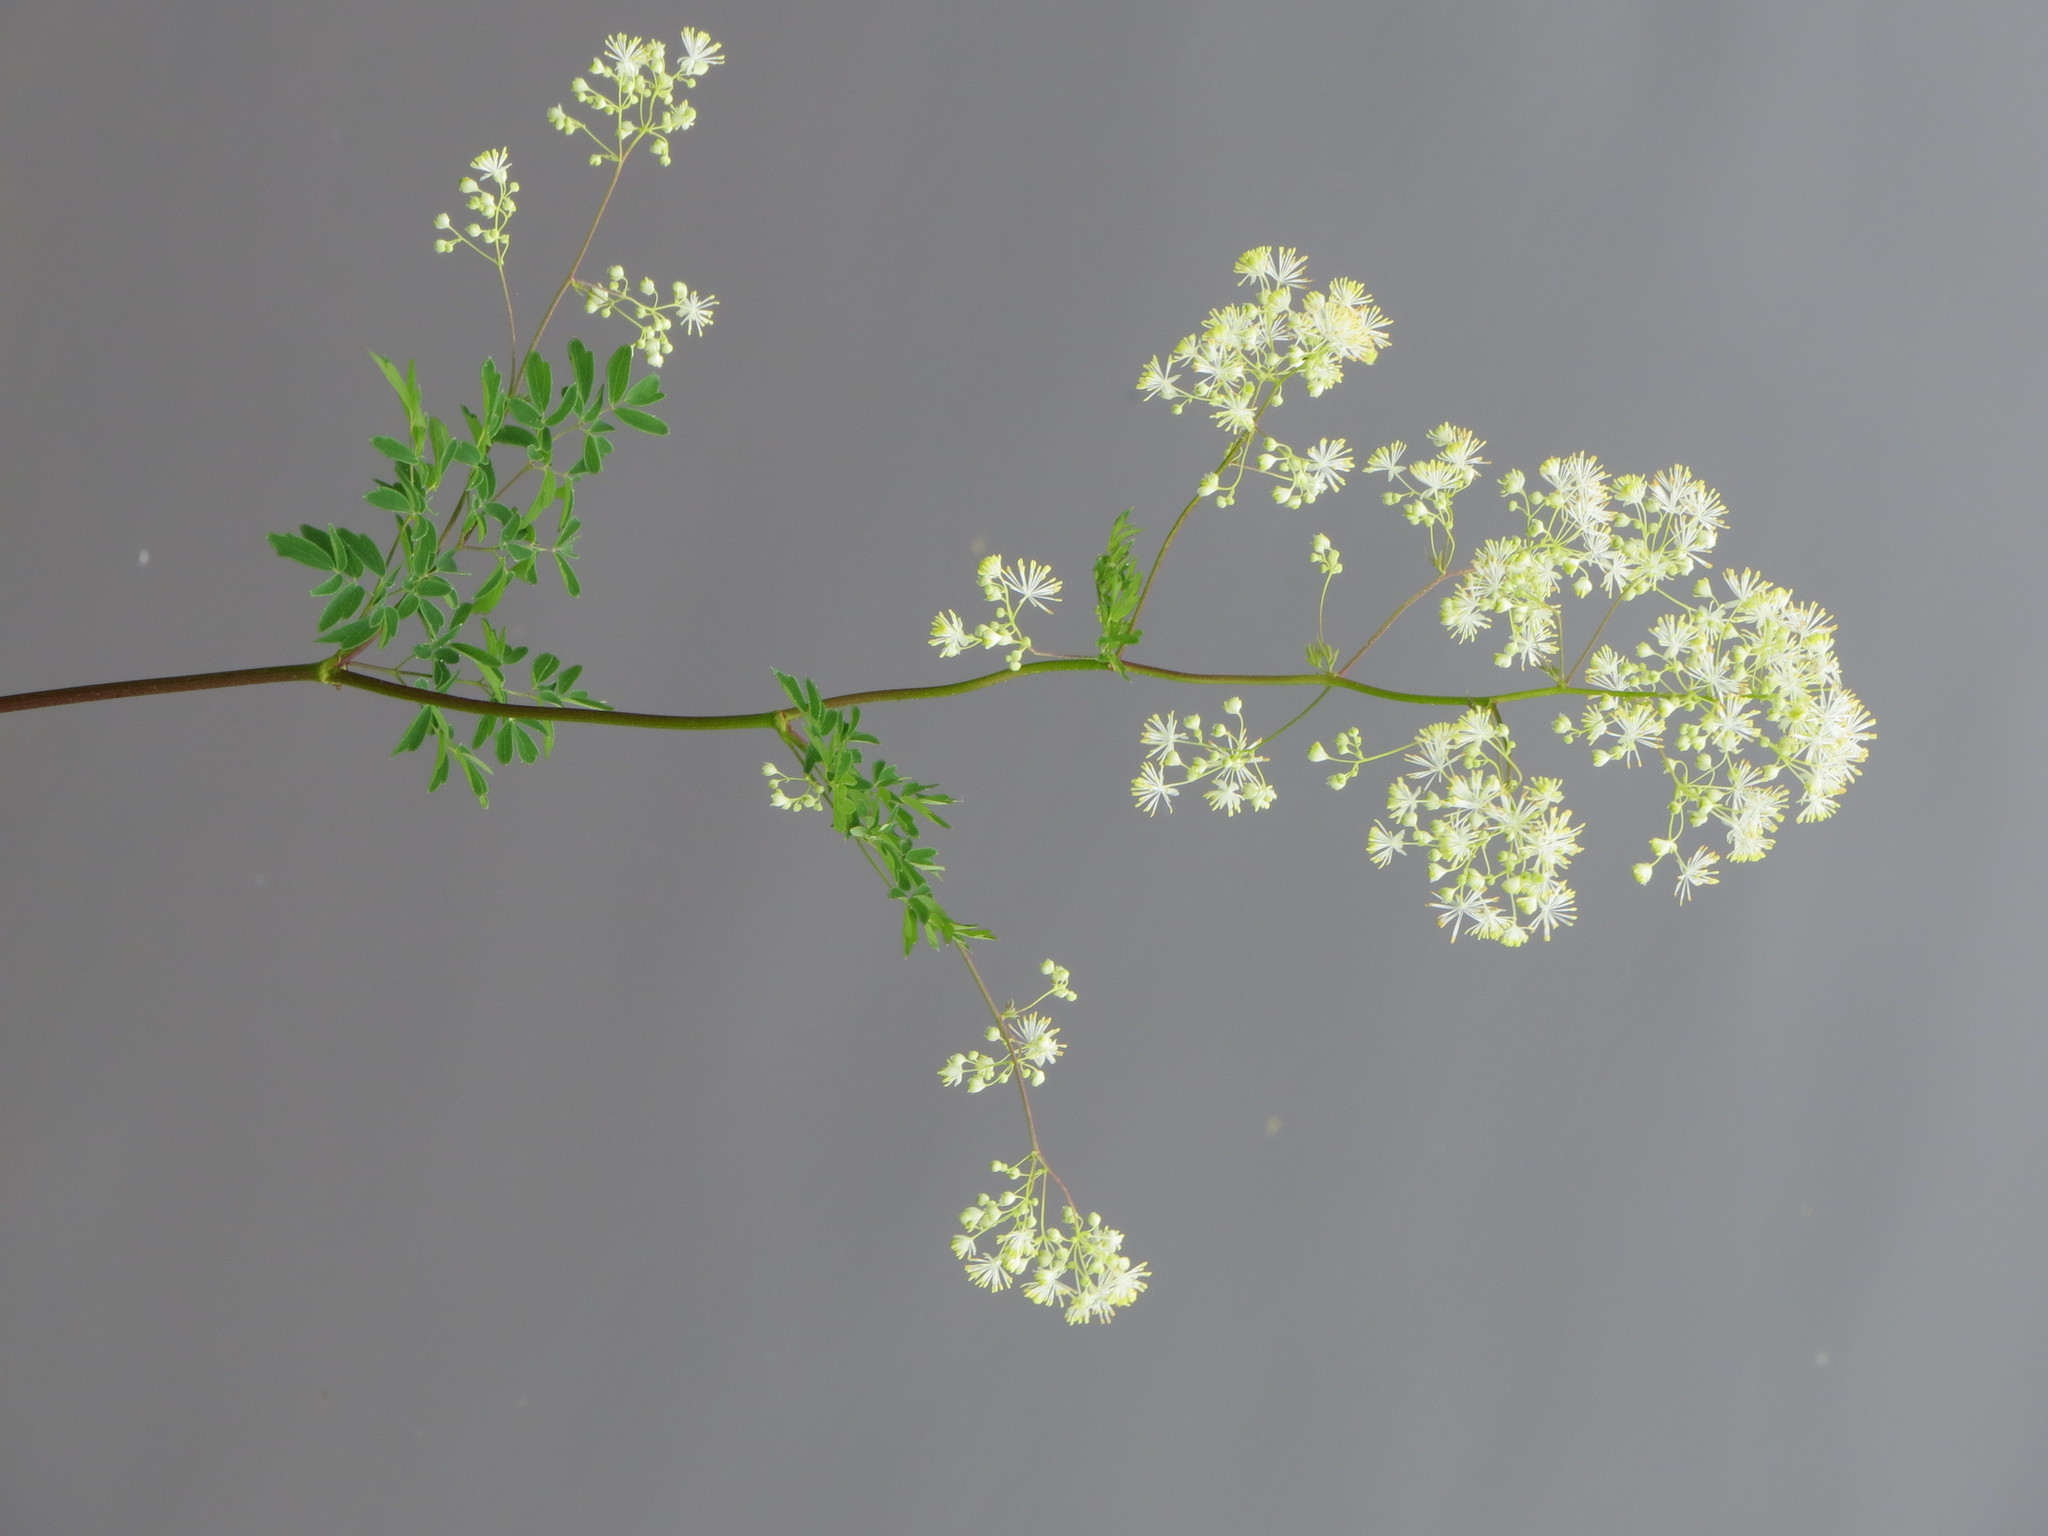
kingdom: Plantae
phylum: Tracheophyta
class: Magnoliopsida
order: Ranunculales
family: Ranunculaceae
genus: Thalictrum
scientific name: Thalictrum pubescens
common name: King-of-the-meadow
